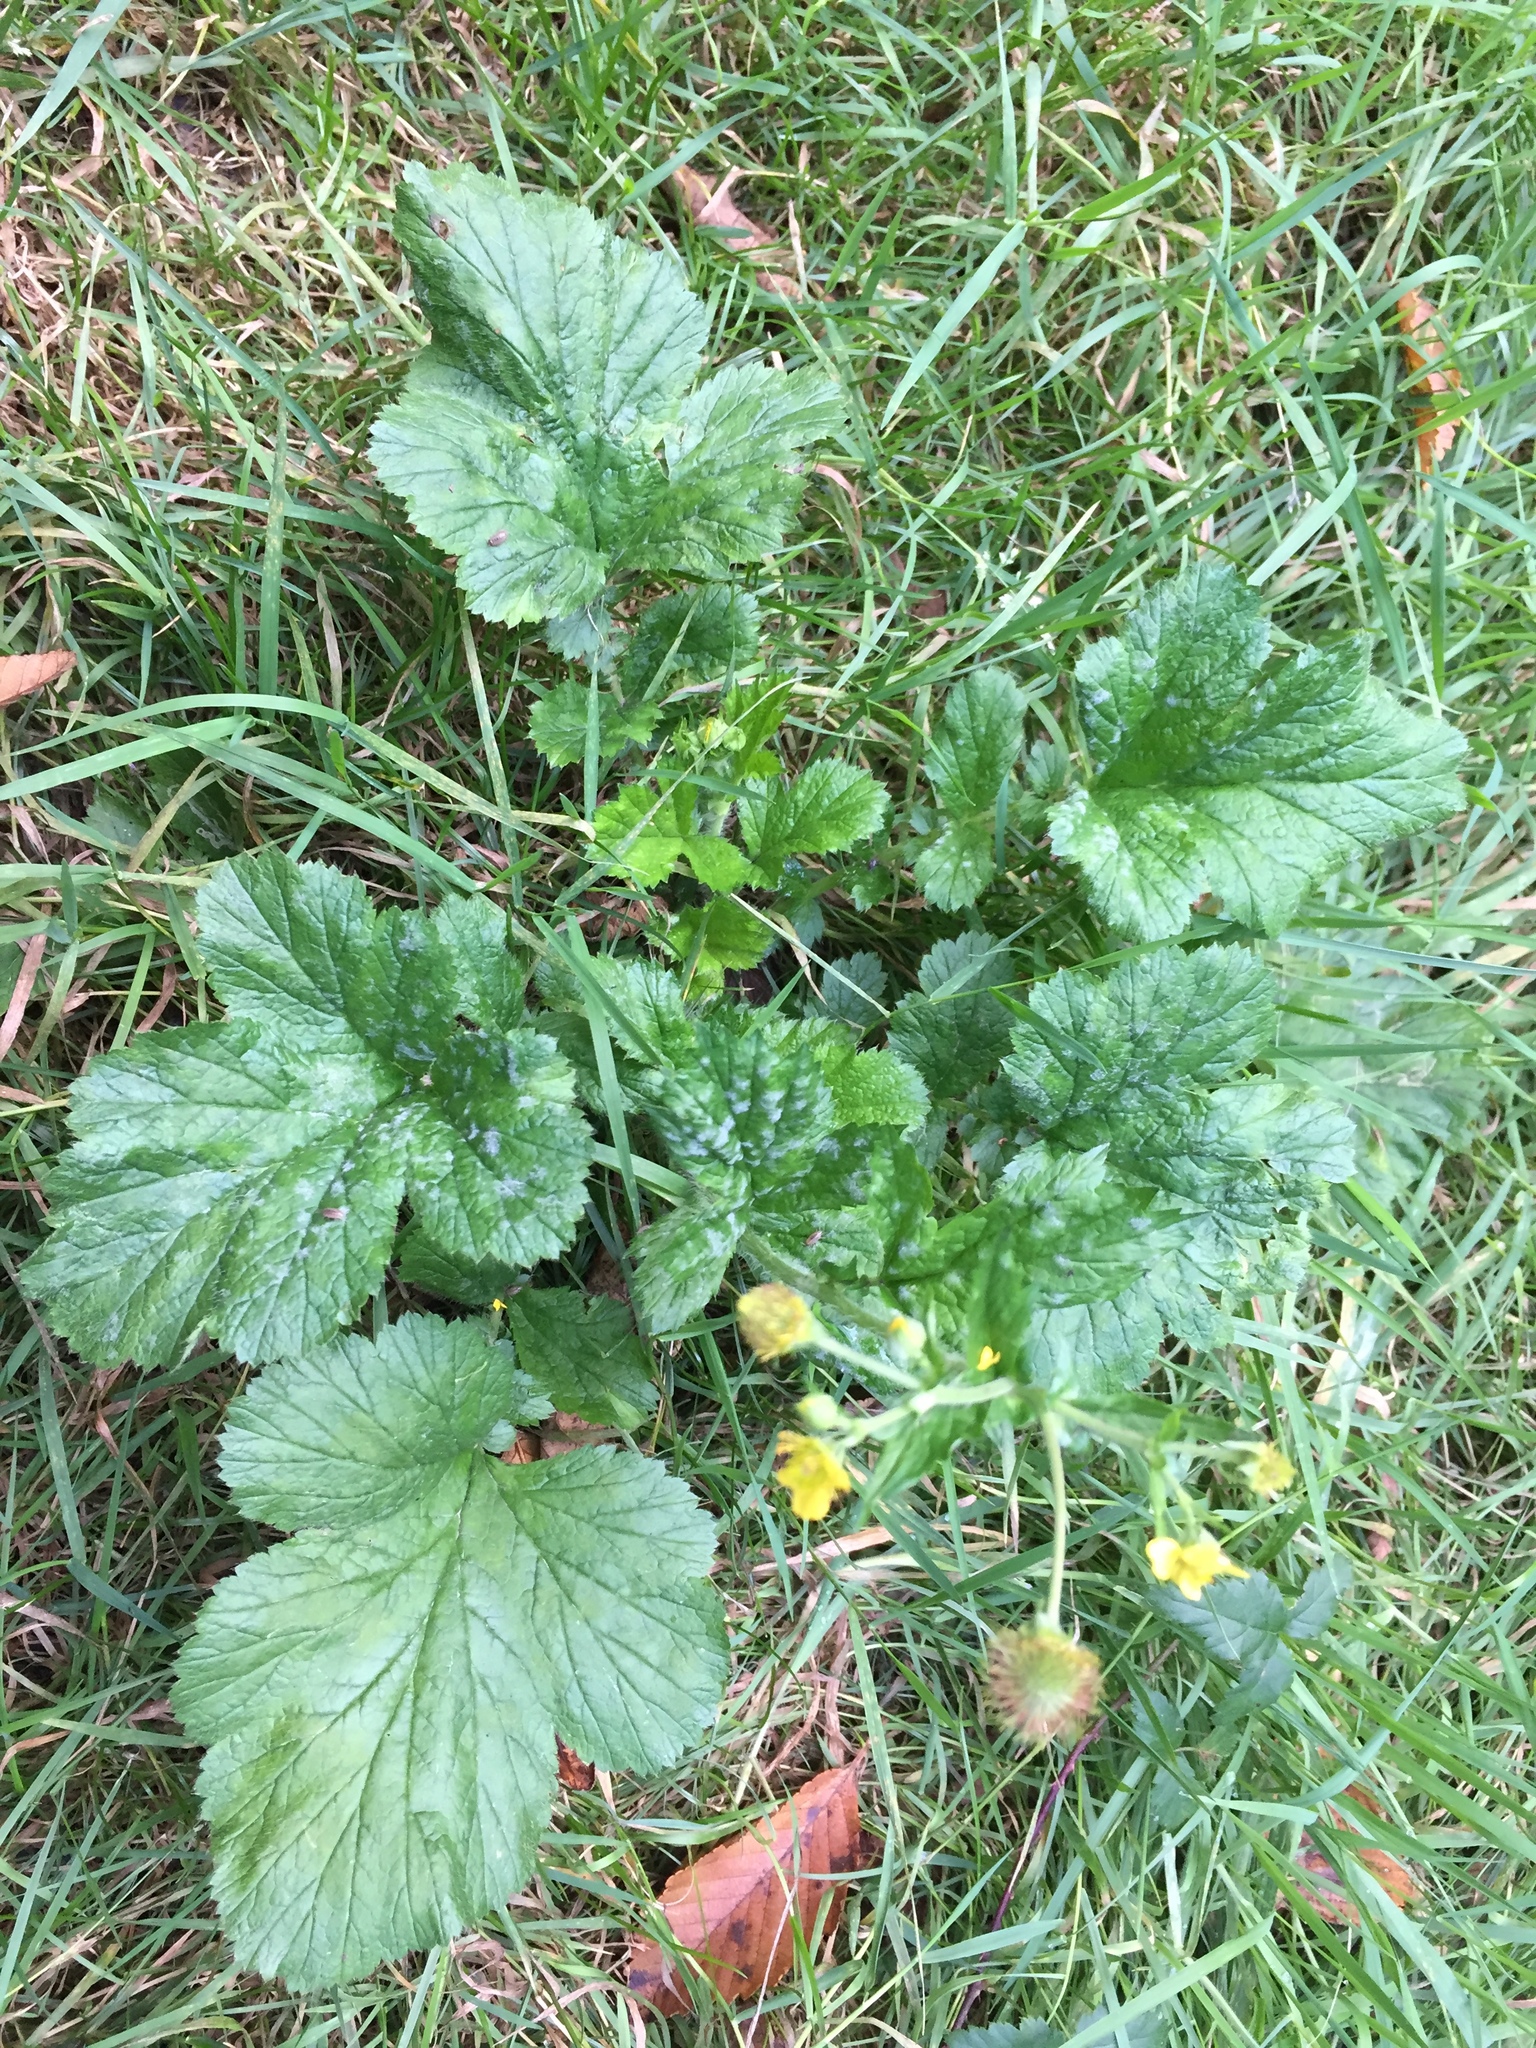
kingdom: Plantae
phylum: Tracheophyta
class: Magnoliopsida
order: Rosales
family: Rosaceae
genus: Geum
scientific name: Geum macrophyllum
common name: Large-leaved avens
